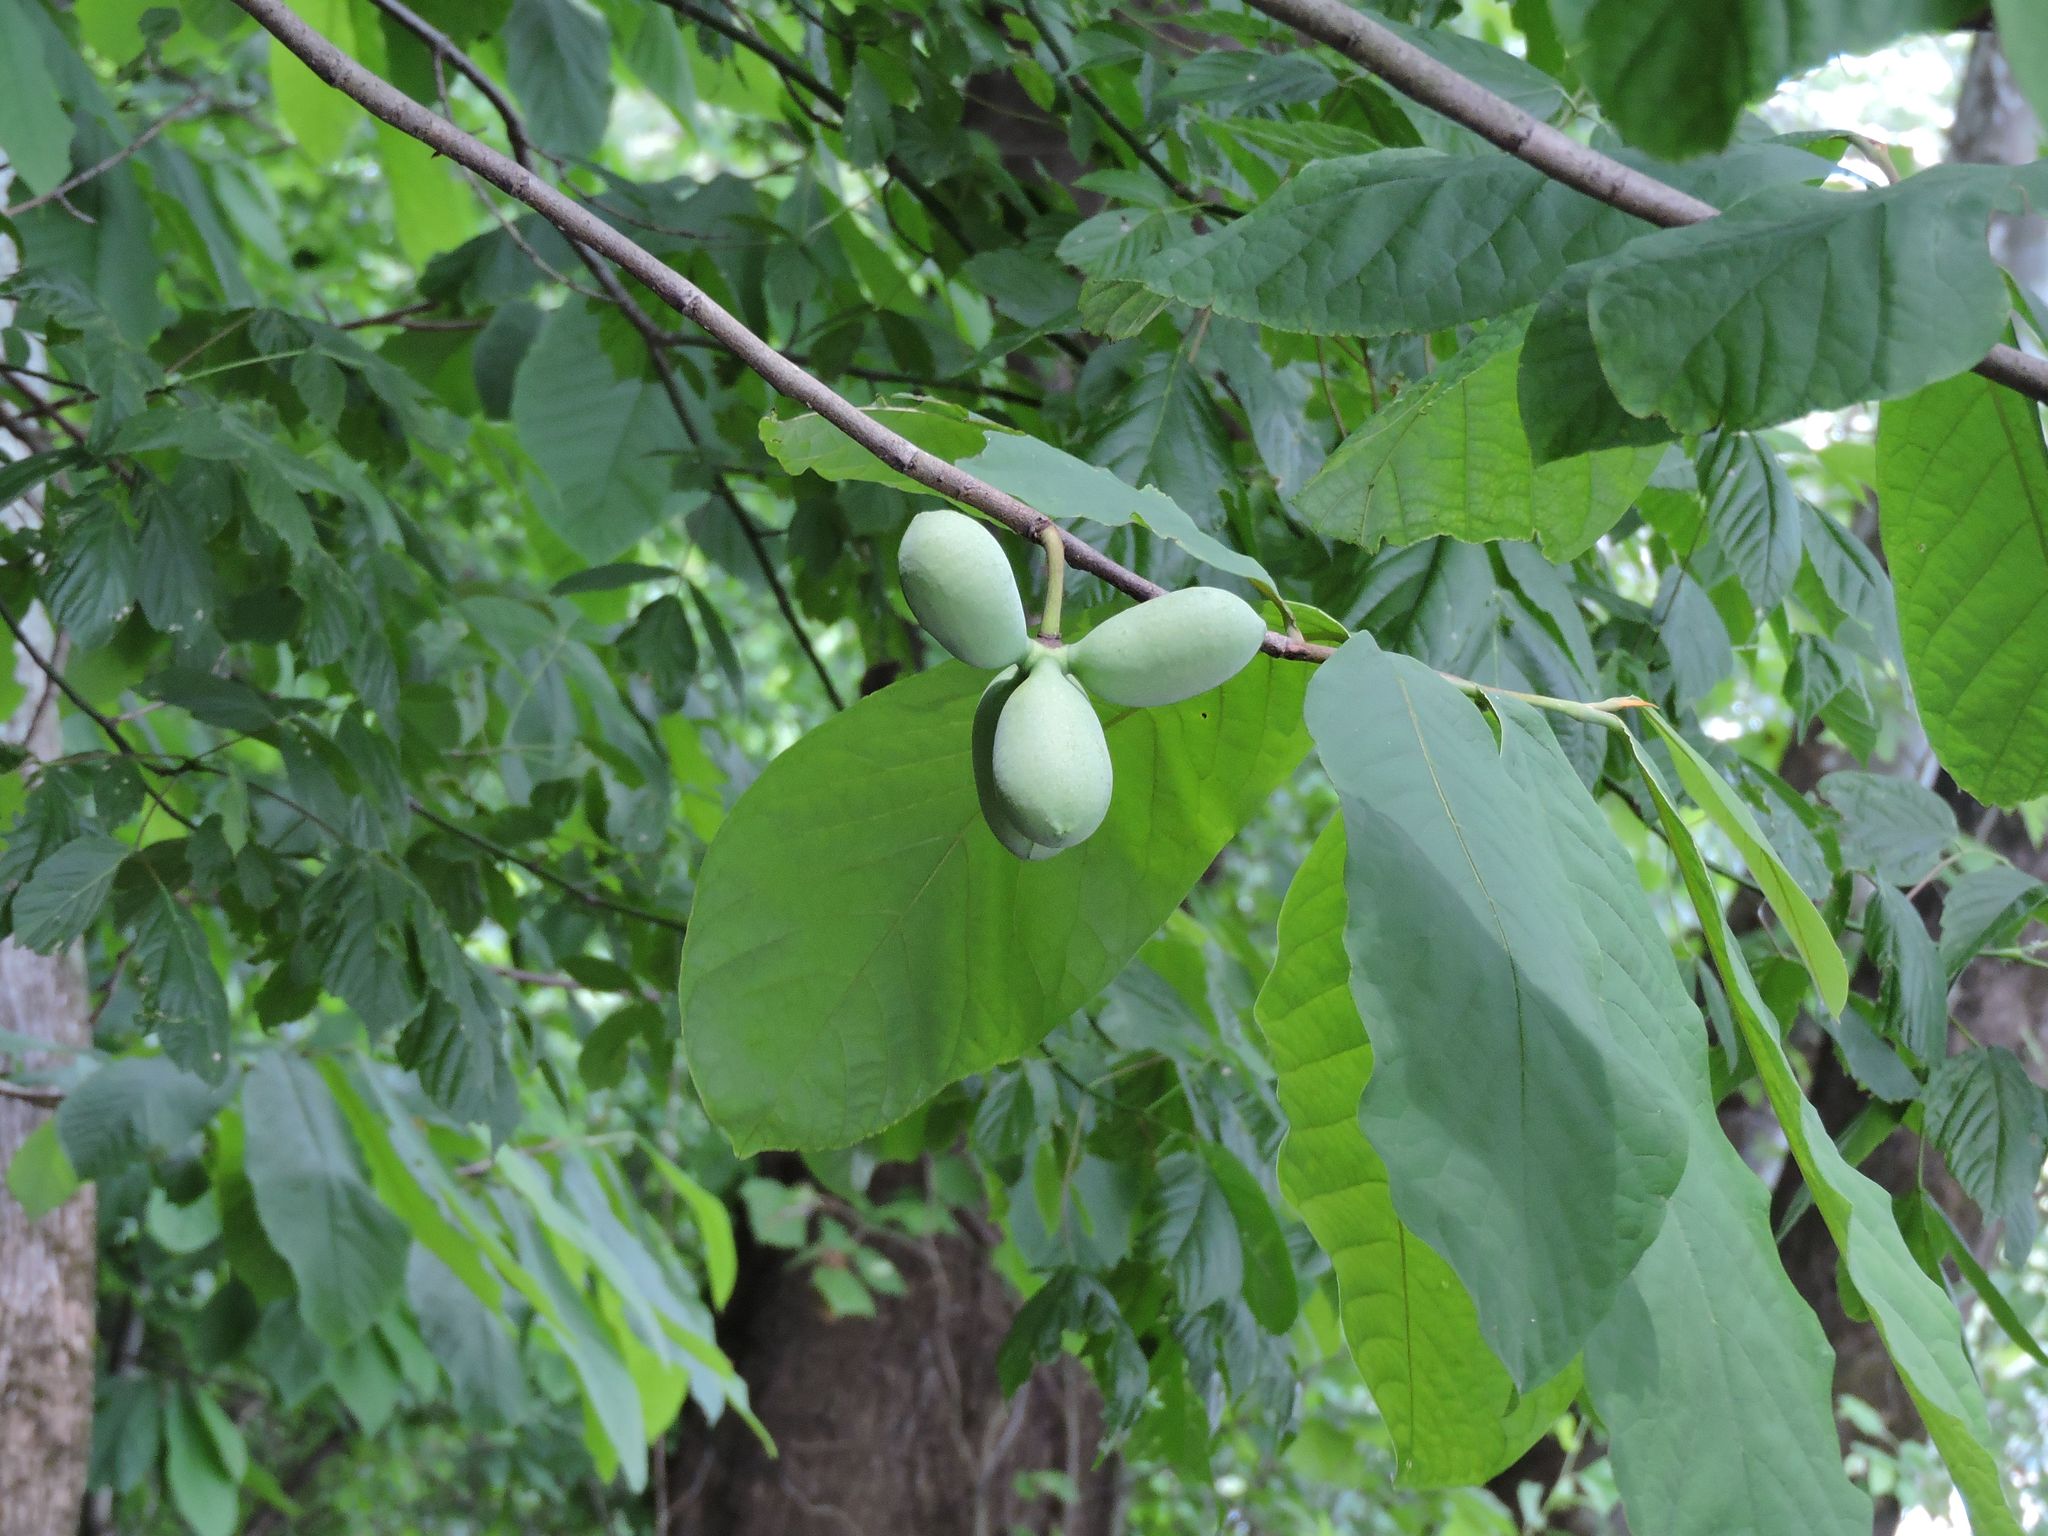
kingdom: Plantae
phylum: Tracheophyta
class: Magnoliopsida
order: Magnoliales
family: Annonaceae
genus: Asimina
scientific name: Asimina triloba
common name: Dog-banana
